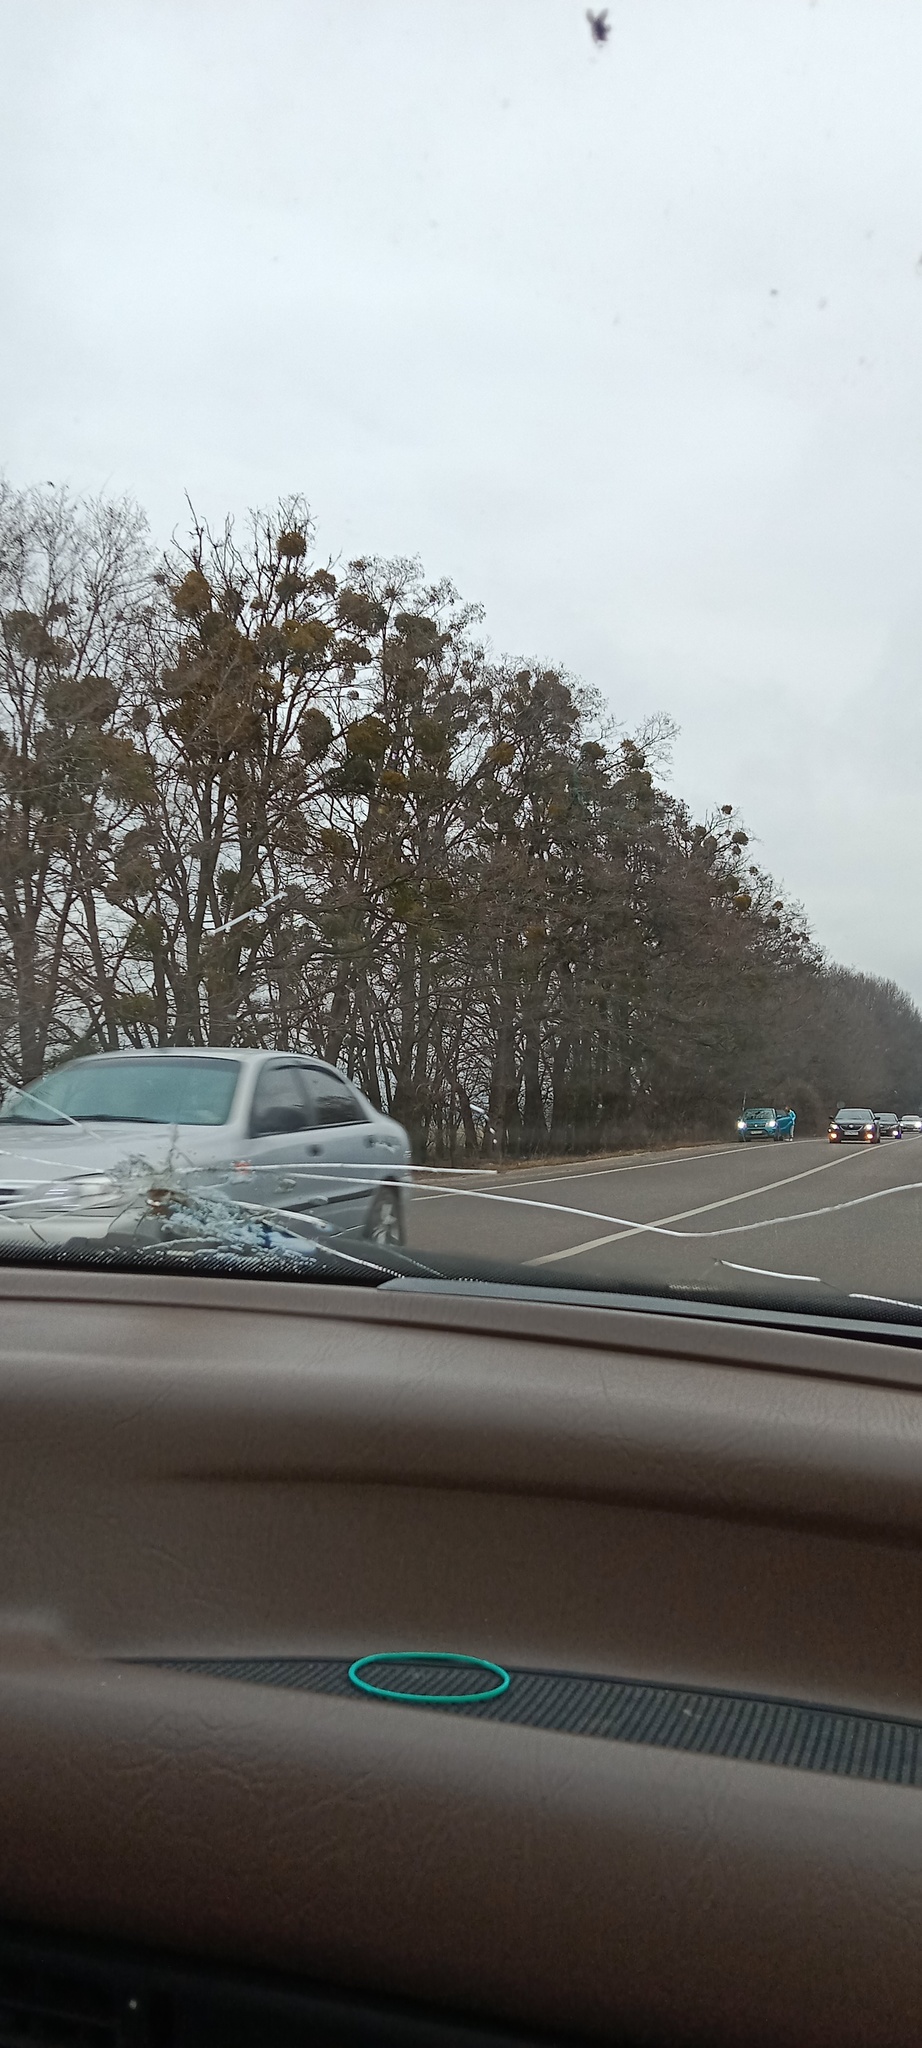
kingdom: Plantae
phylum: Tracheophyta
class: Magnoliopsida
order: Santalales
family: Viscaceae
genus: Viscum
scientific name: Viscum album
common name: Mistletoe
